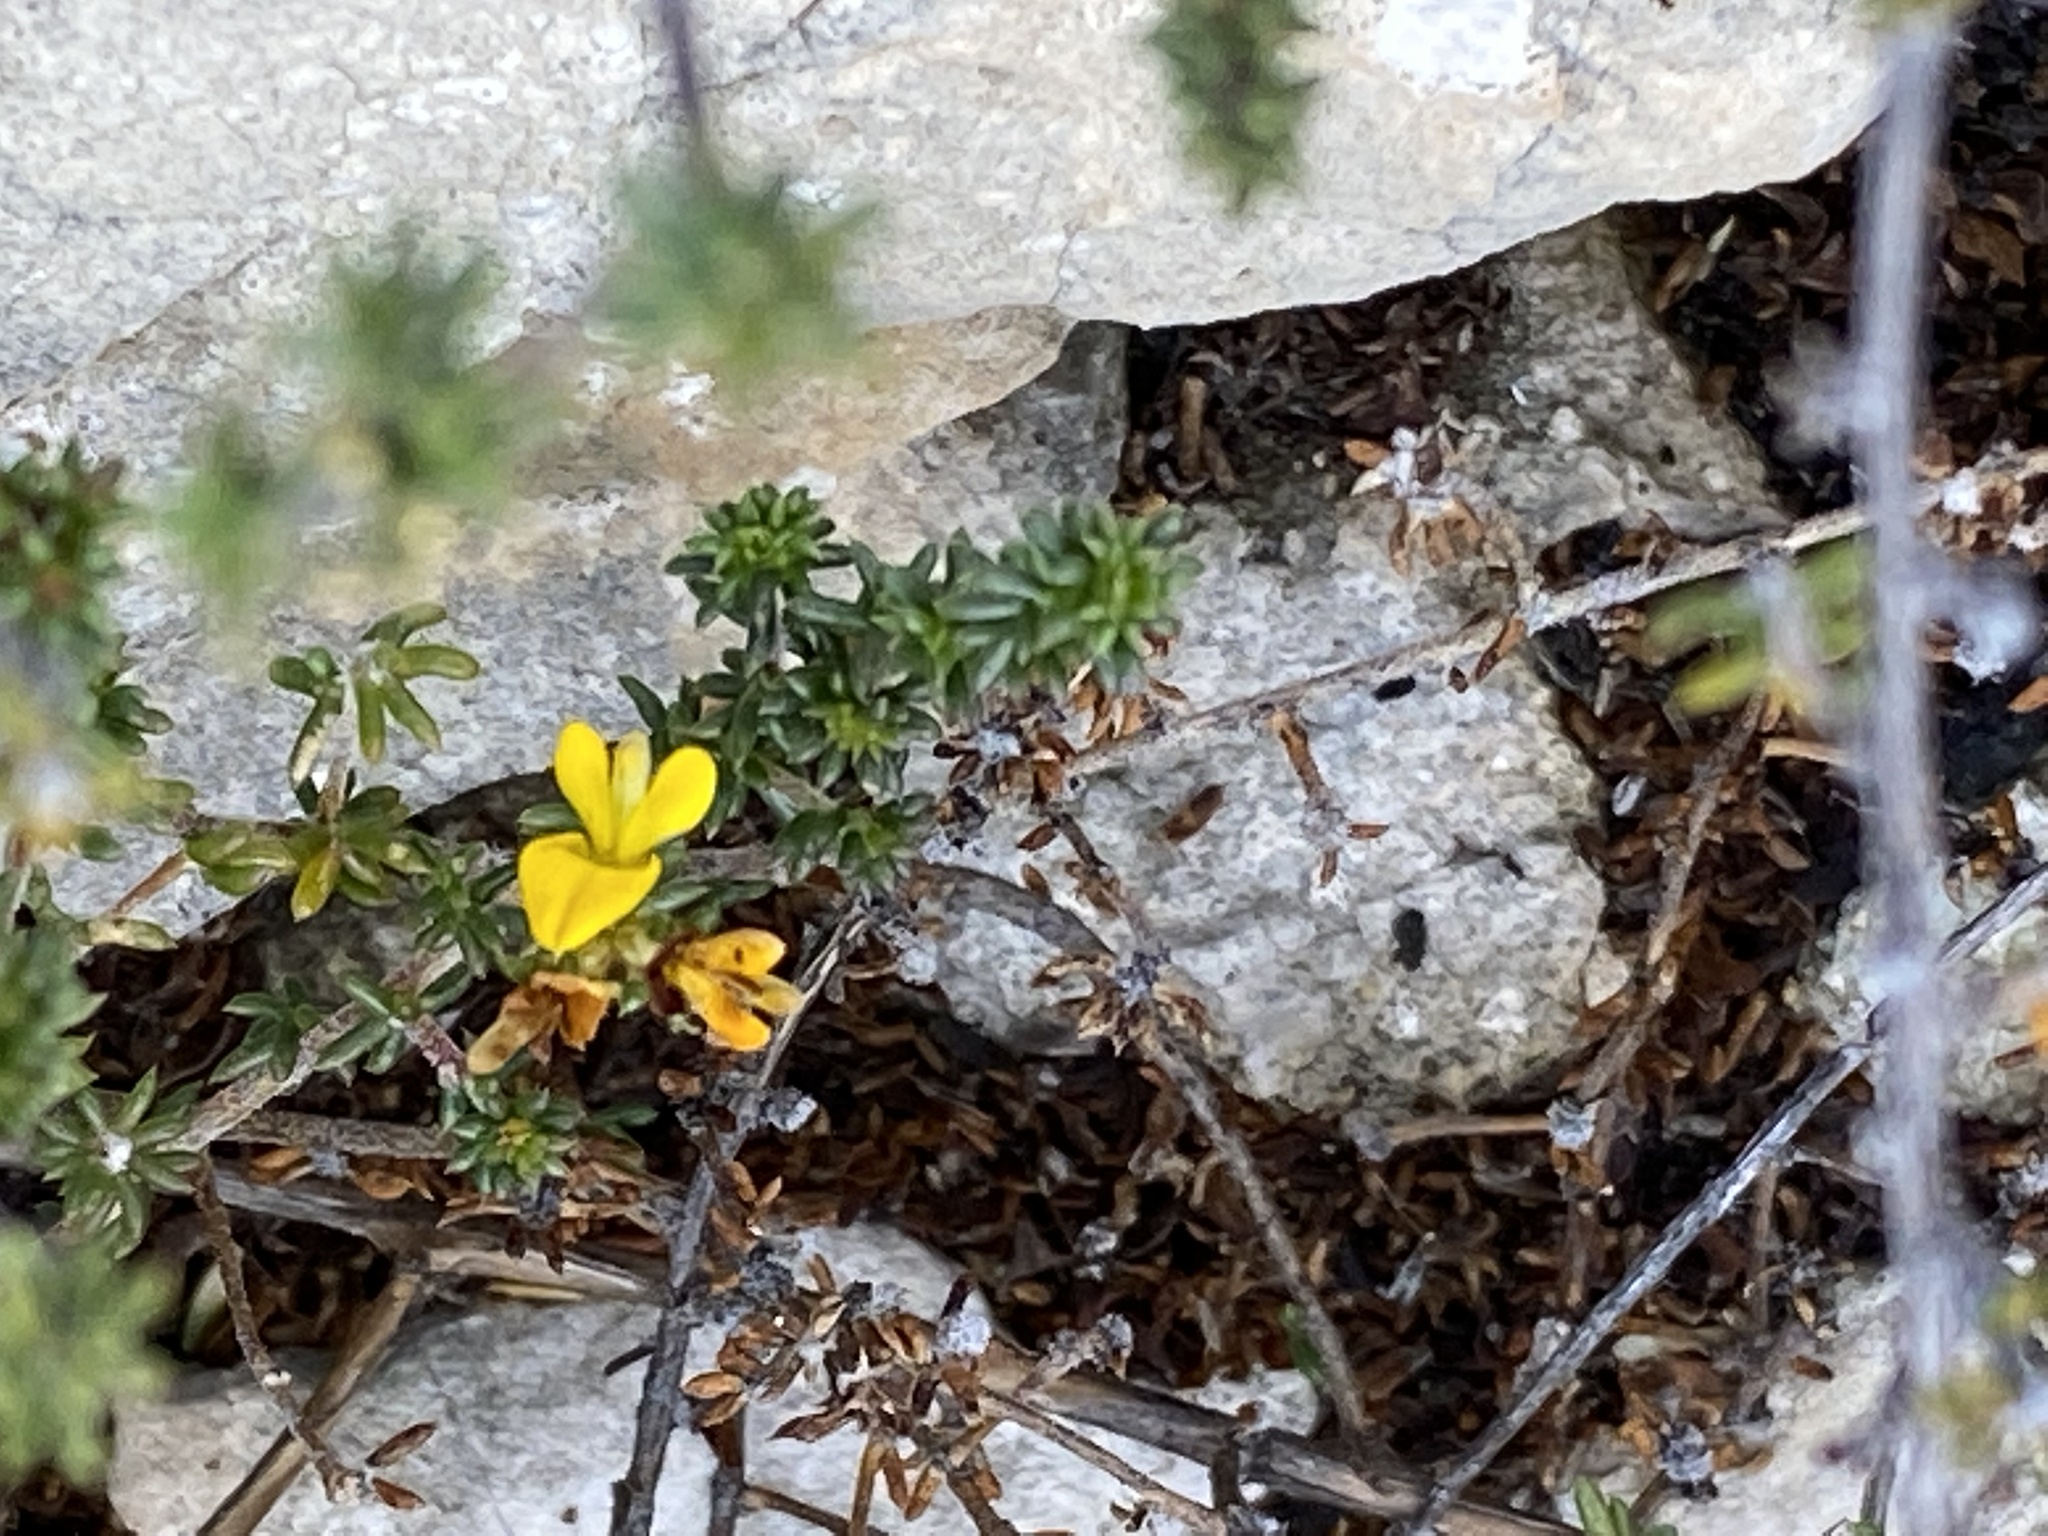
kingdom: Plantae
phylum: Tracheophyta
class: Magnoliopsida
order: Fabales
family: Fabaceae
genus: Aspalathus
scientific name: Aspalathus crassisepala
